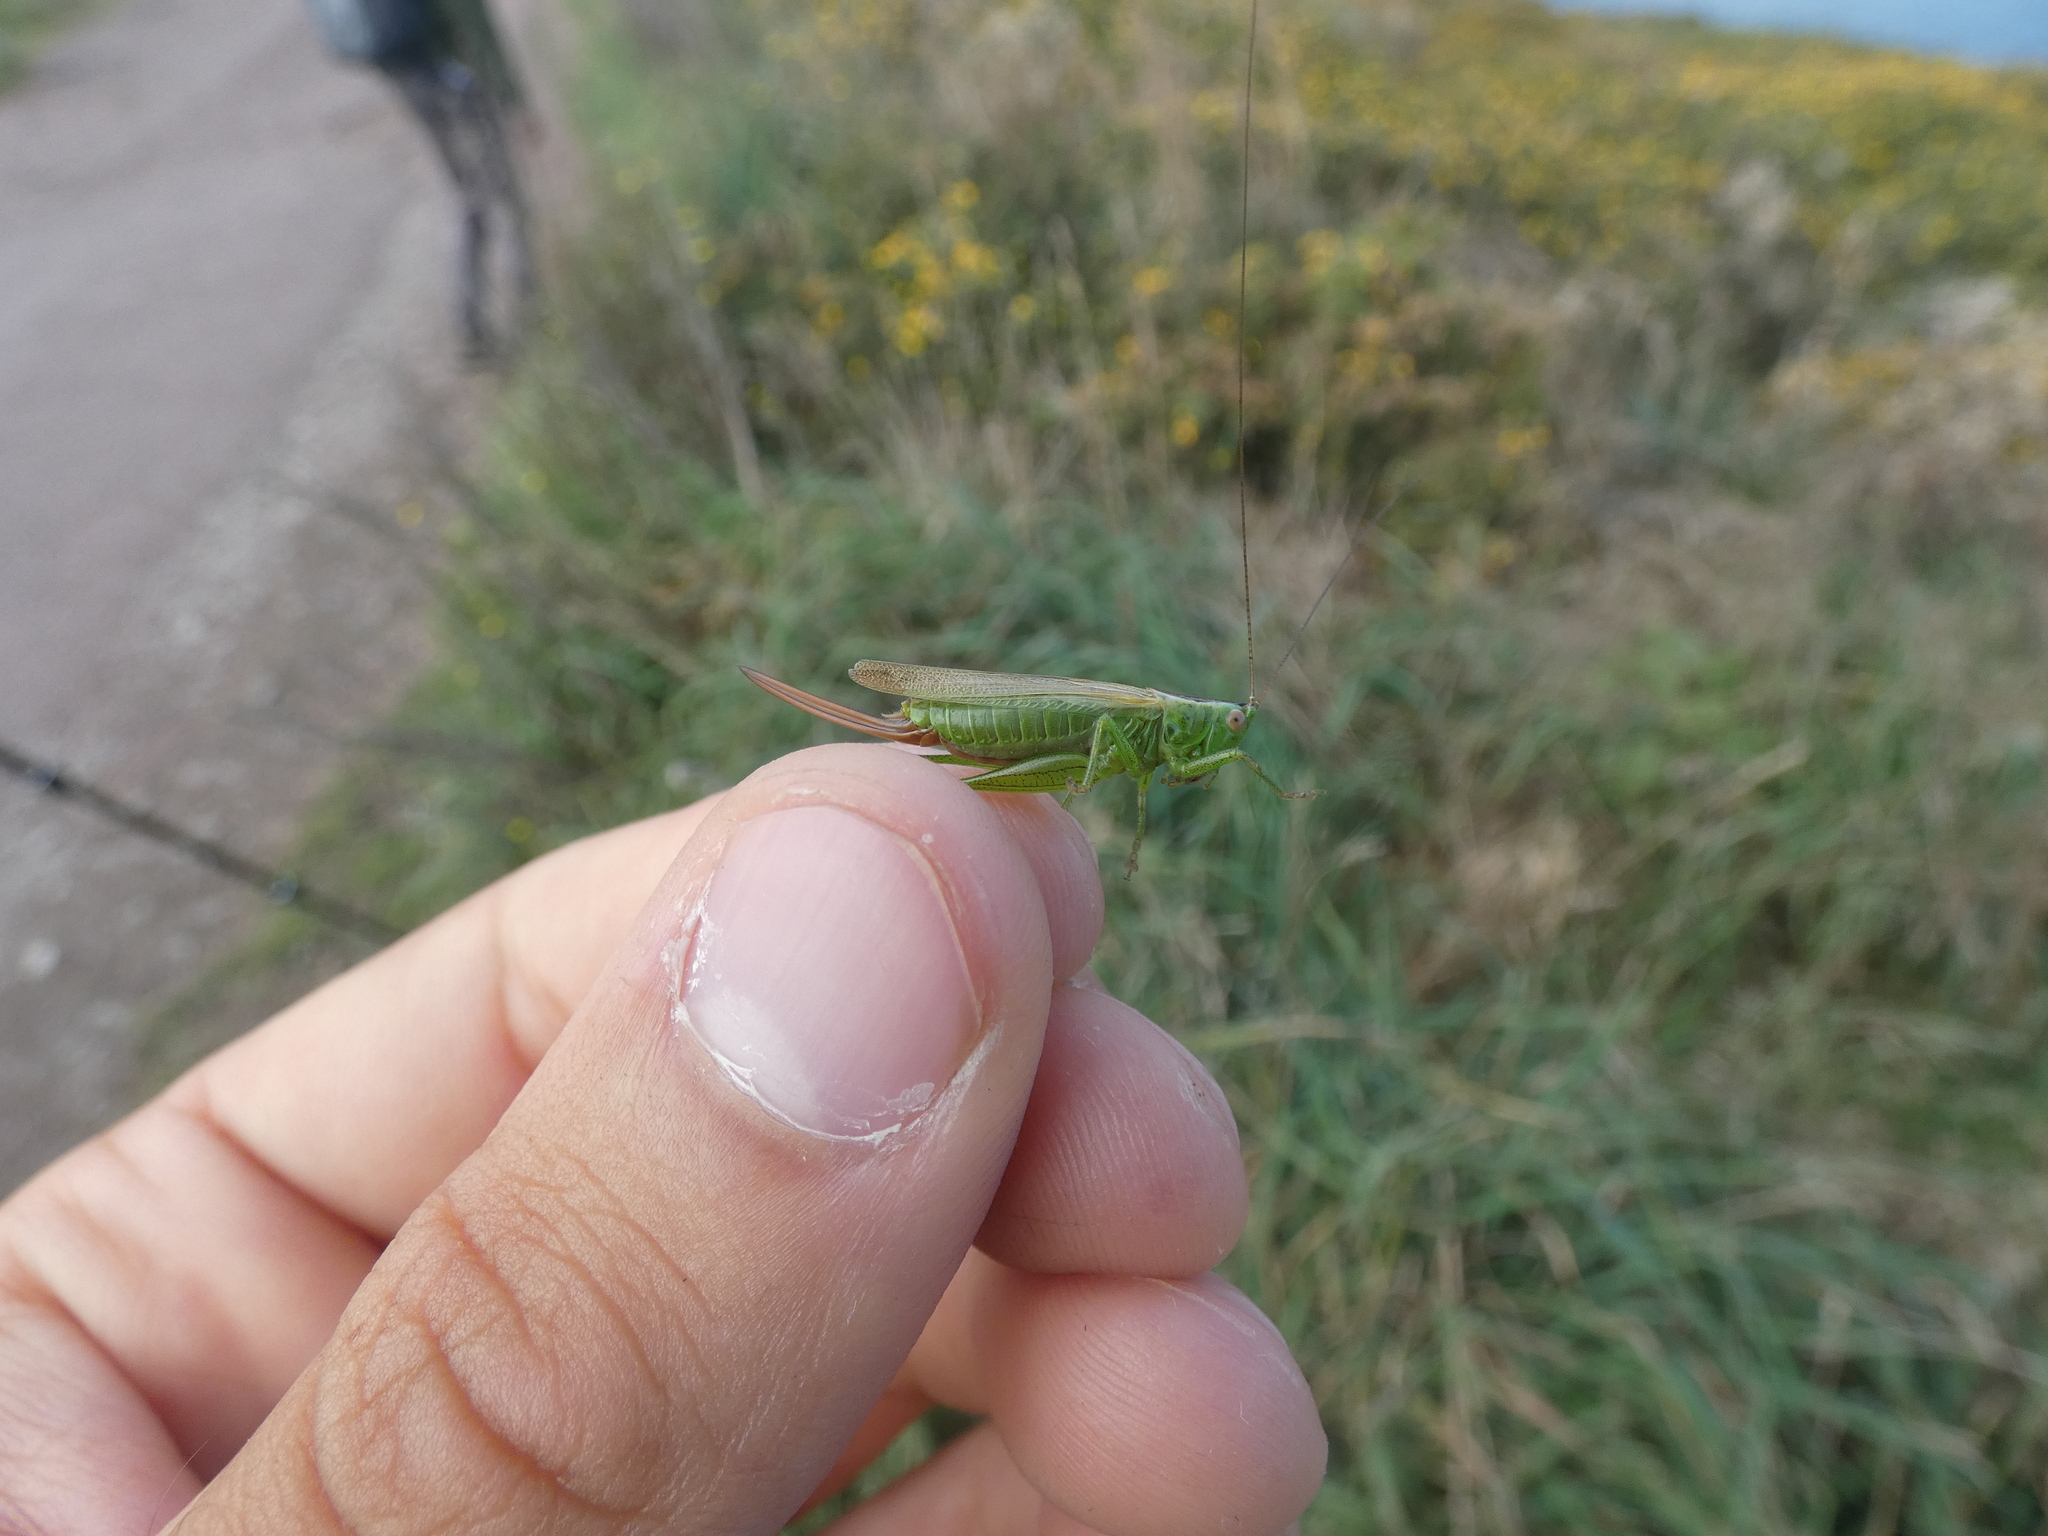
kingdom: Animalia
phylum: Arthropoda
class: Insecta
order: Orthoptera
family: Tettigoniidae
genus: Conocephalus
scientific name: Conocephalus fuscus
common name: Long-winged conehead
